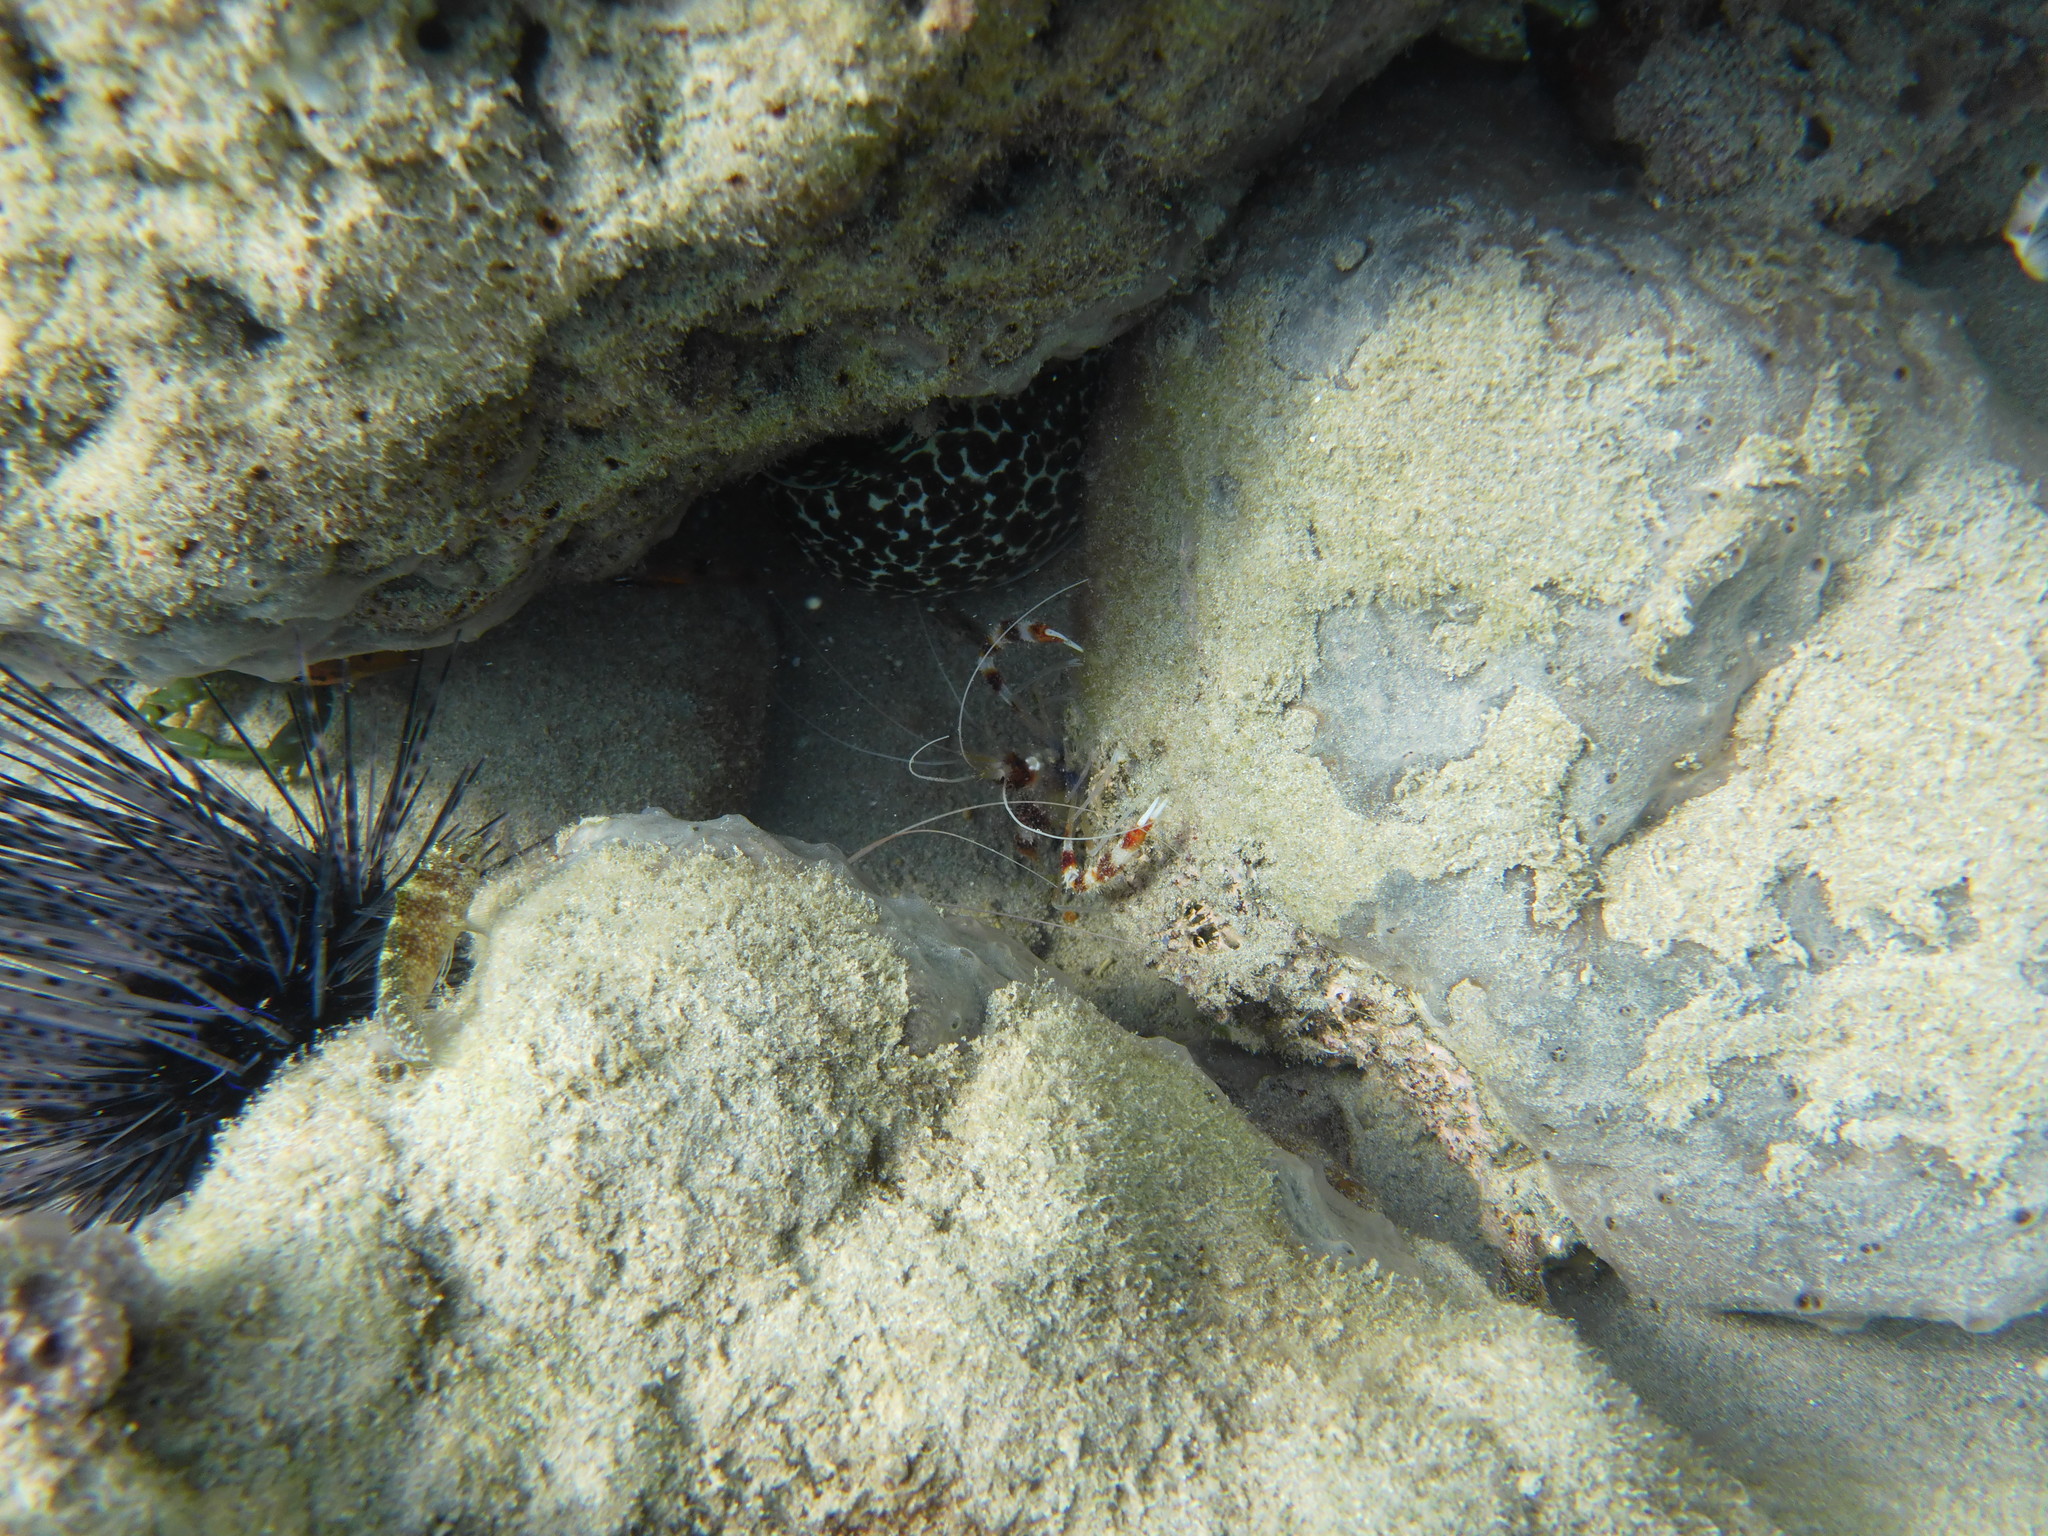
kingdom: Animalia
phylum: Arthropoda
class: Malacostraca
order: Decapoda
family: Stenopodidae
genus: Stenopus
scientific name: Stenopus hispidus
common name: Banded coral shrimp
